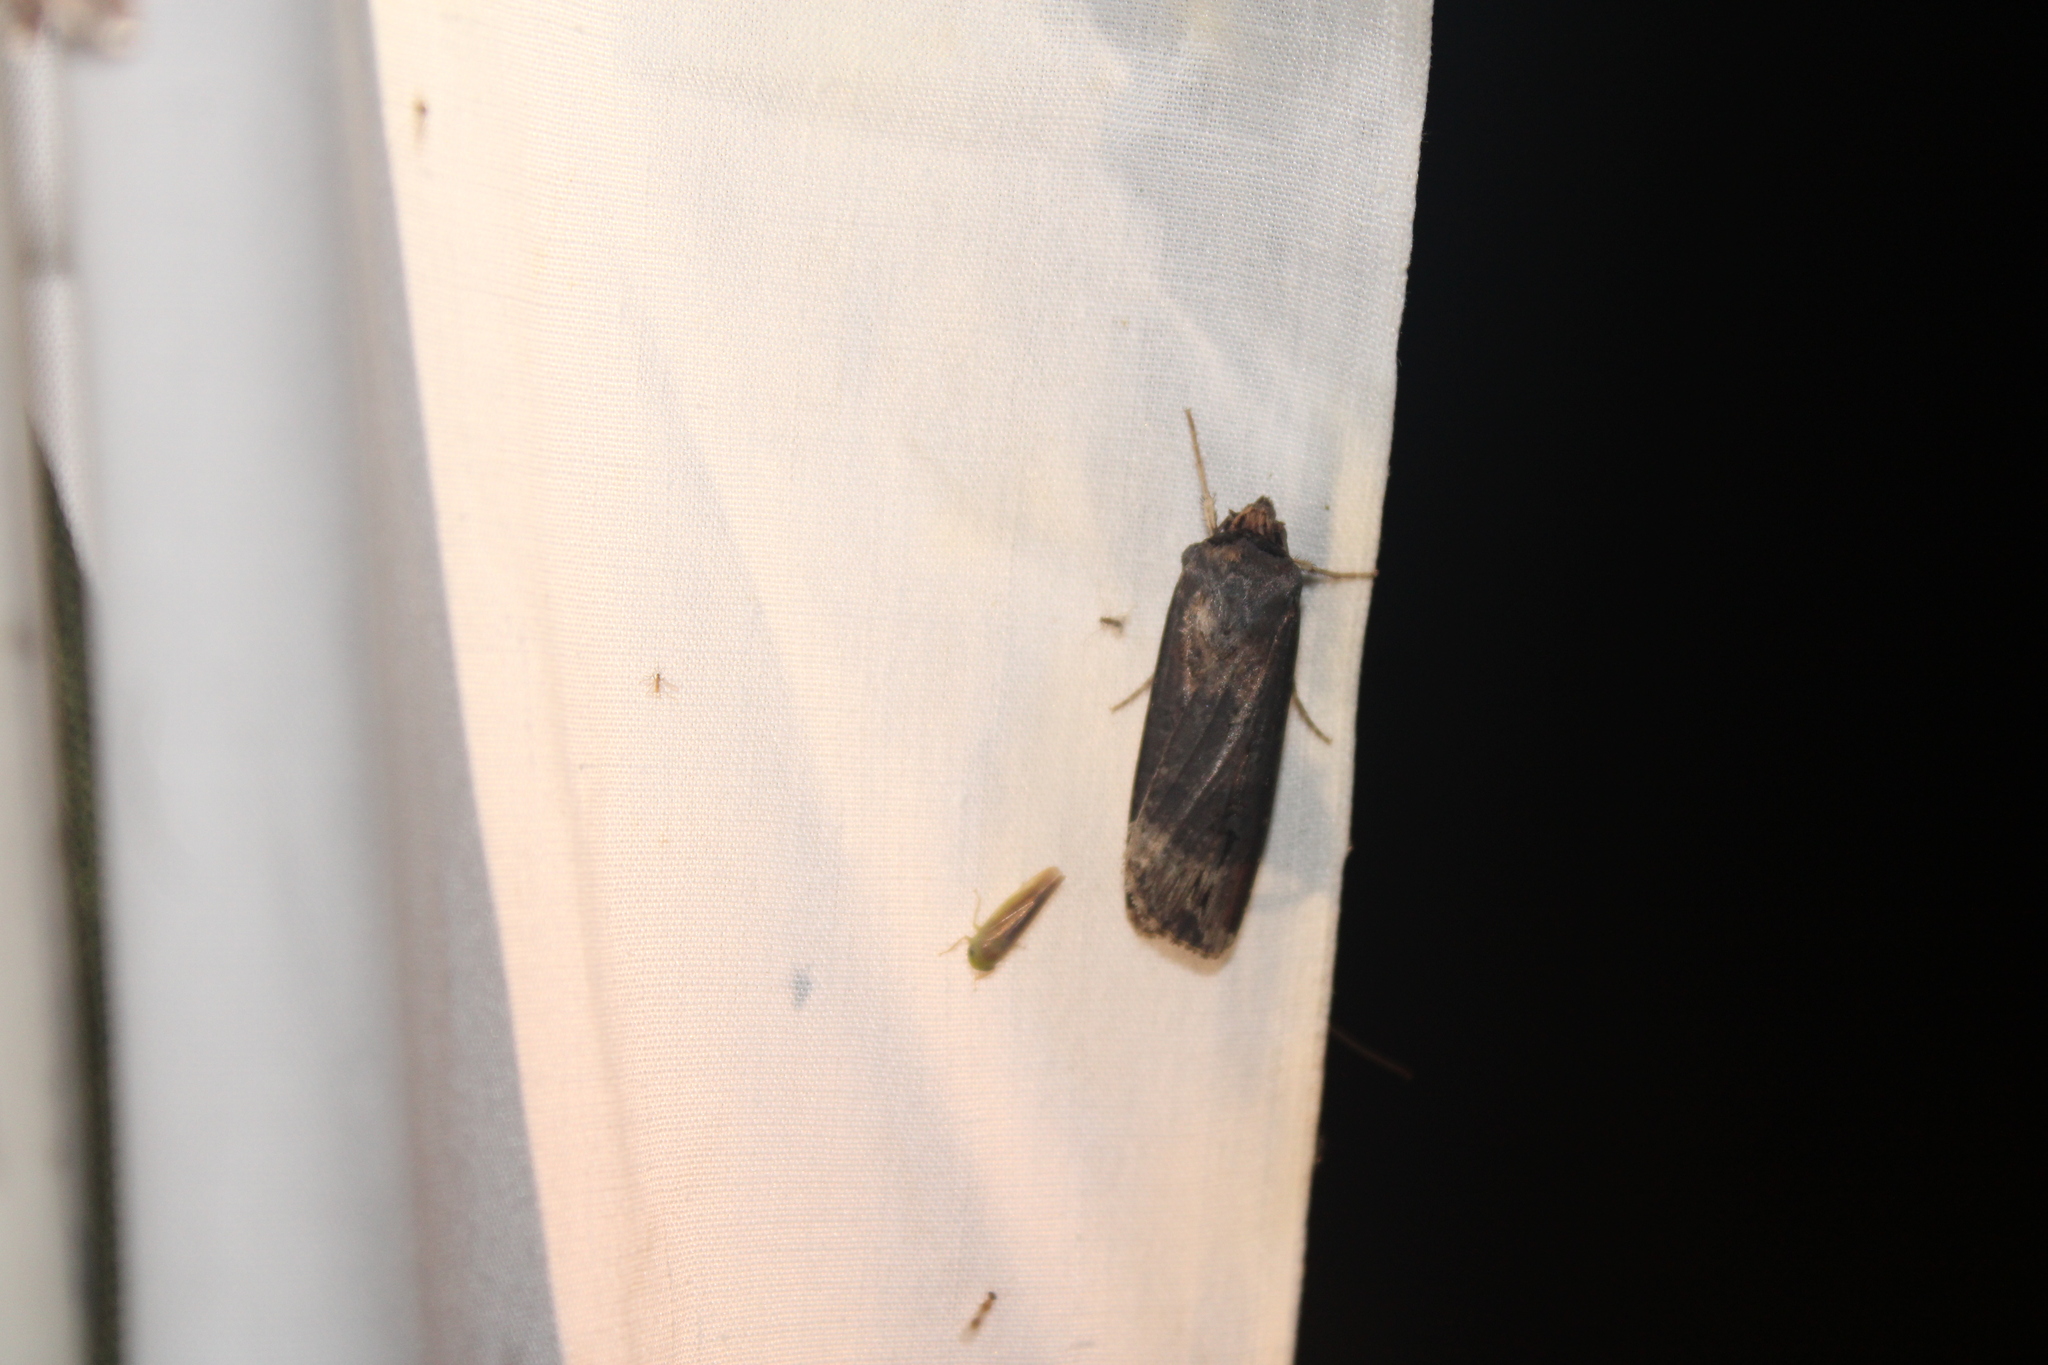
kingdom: Animalia
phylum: Arthropoda
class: Insecta
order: Lepidoptera
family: Noctuidae
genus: Agrotis
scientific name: Agrotis ipsilon
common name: Dark sword-grass
